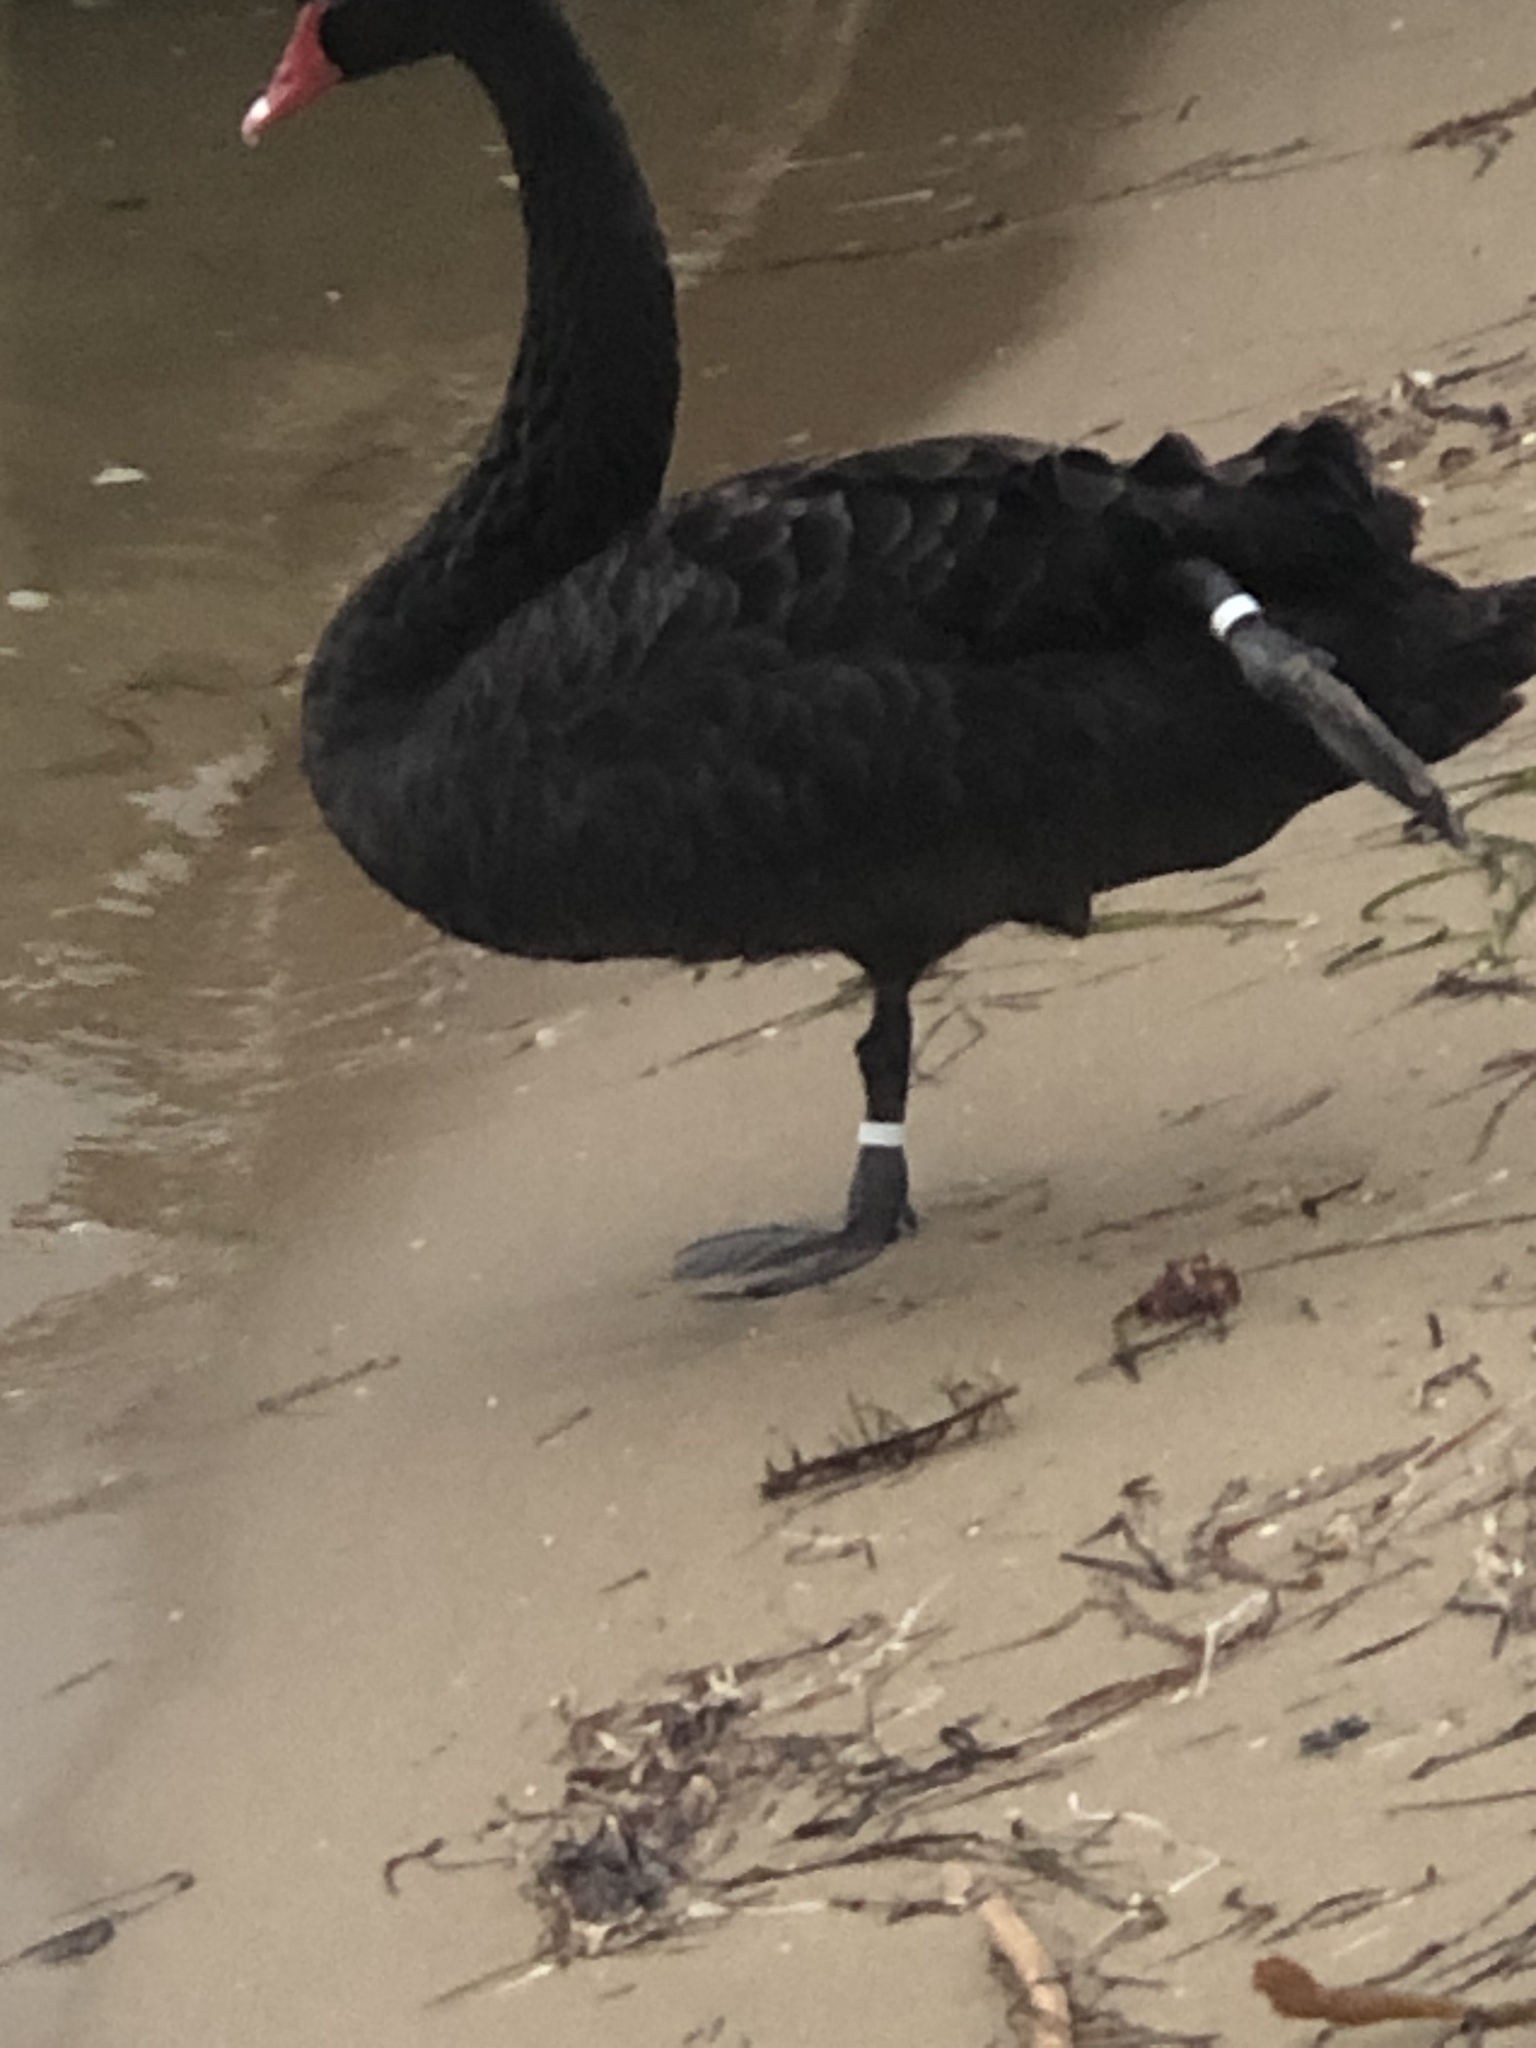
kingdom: Animalia
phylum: Chordata
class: Aves
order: Anseriformes
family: Anatidae
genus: Cygnus
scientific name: Cygnus atratus
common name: Black swan
